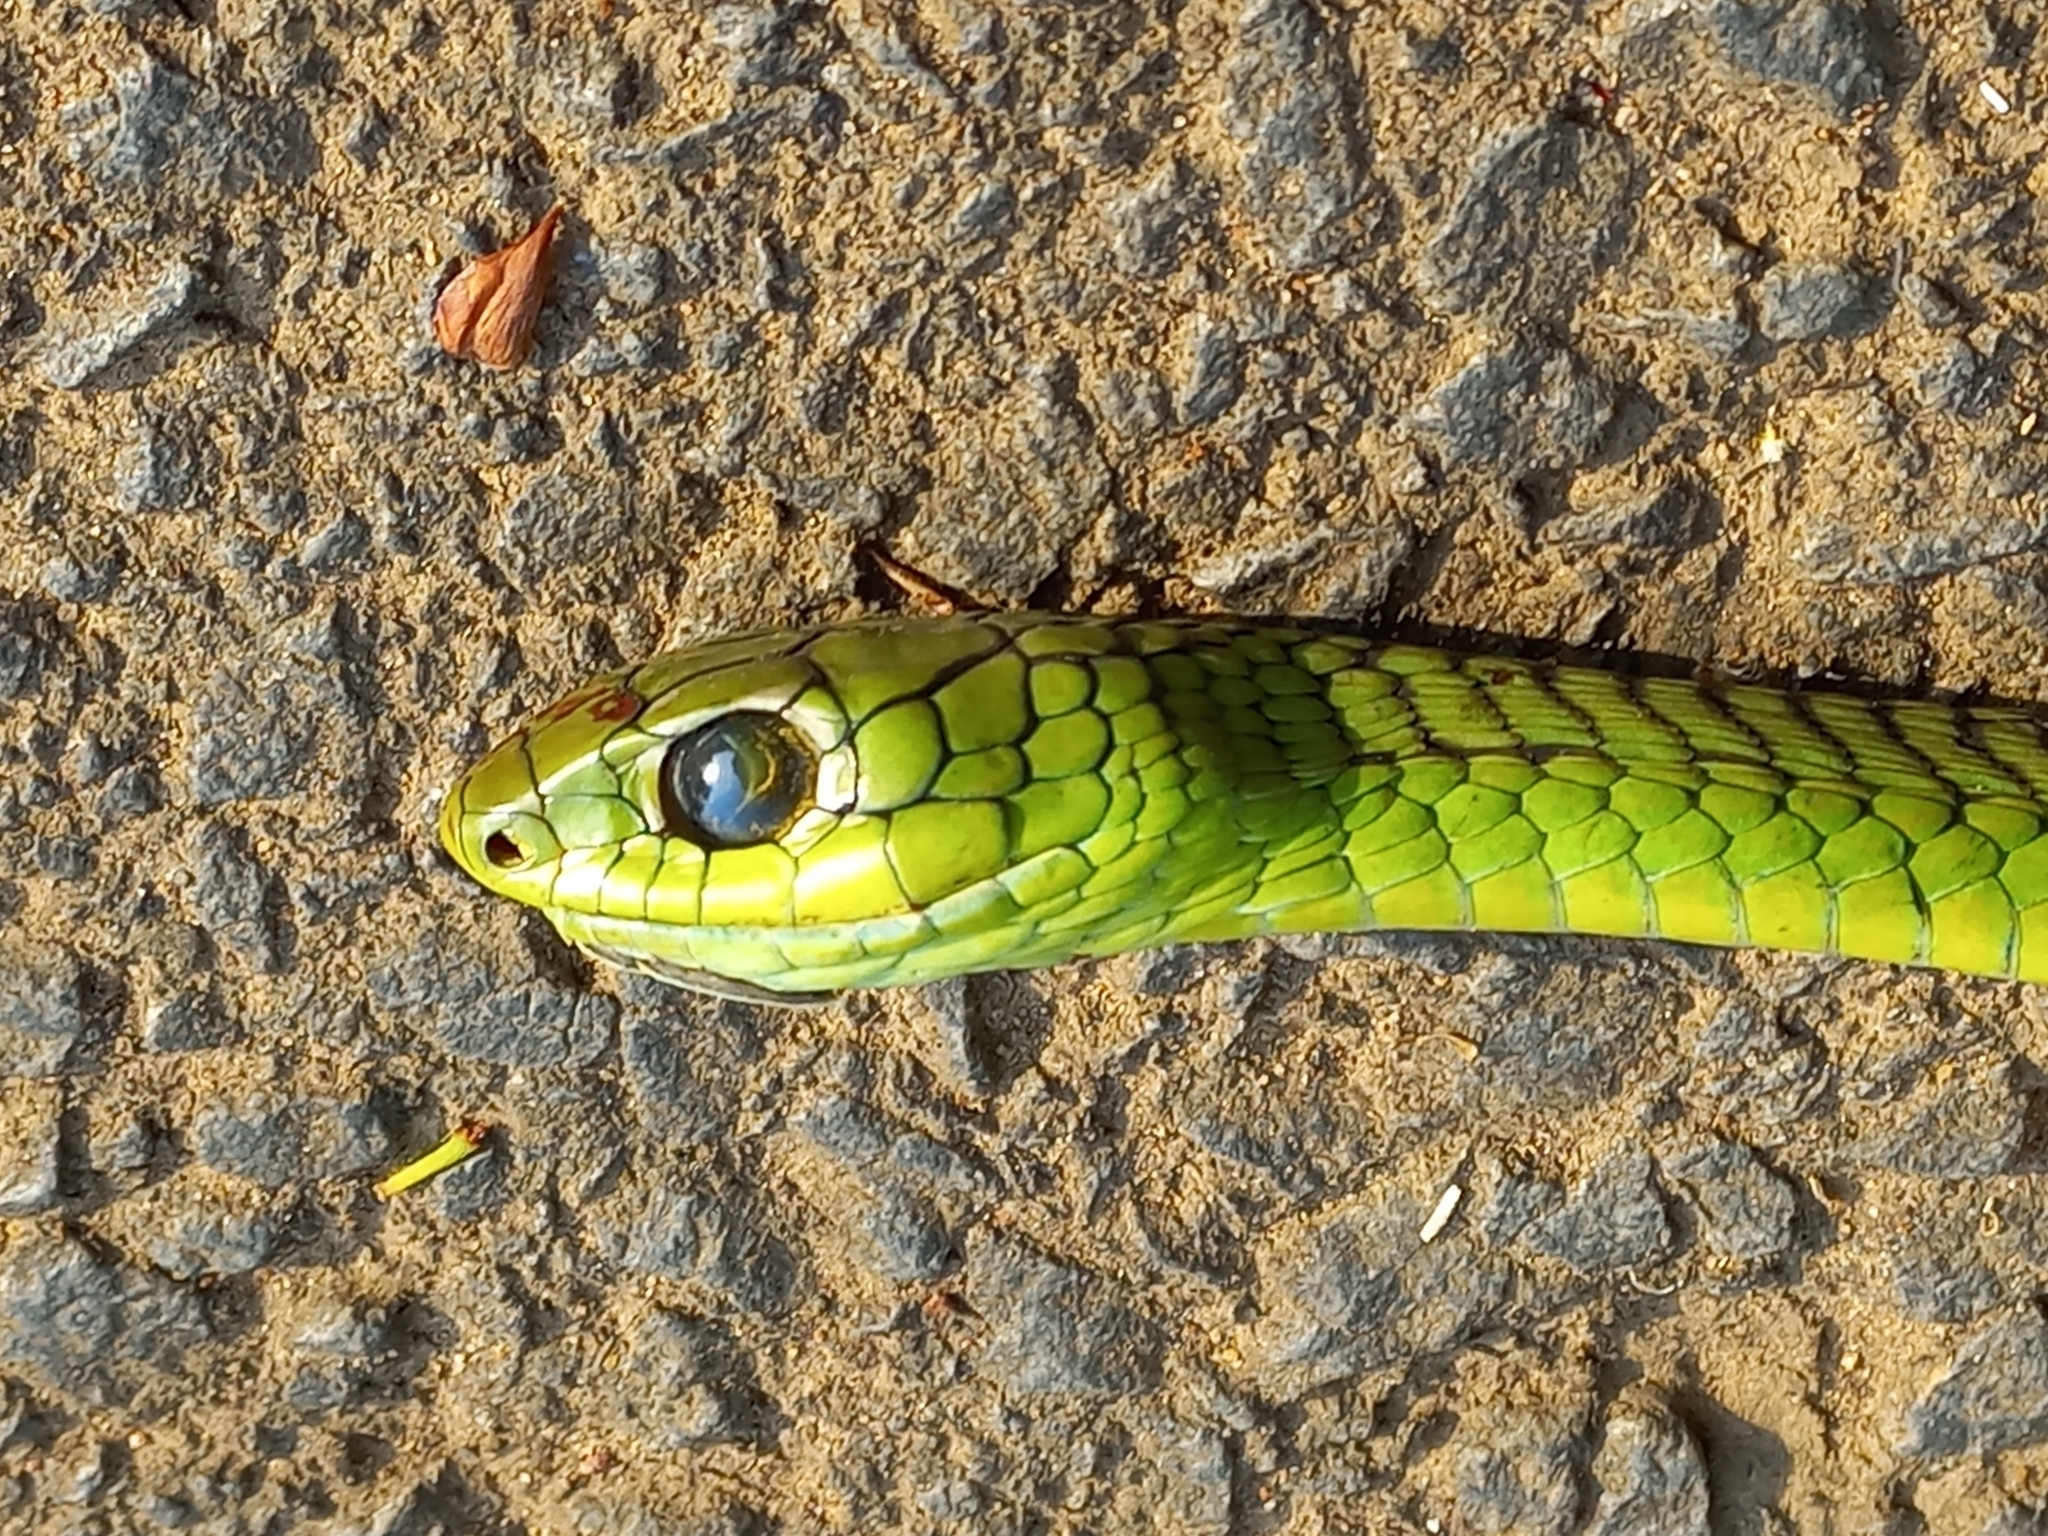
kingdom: Animalia
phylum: Chordata
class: Squamata
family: Colubridae
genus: Dispholidus
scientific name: Dispholidus typus
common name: Boomslang
